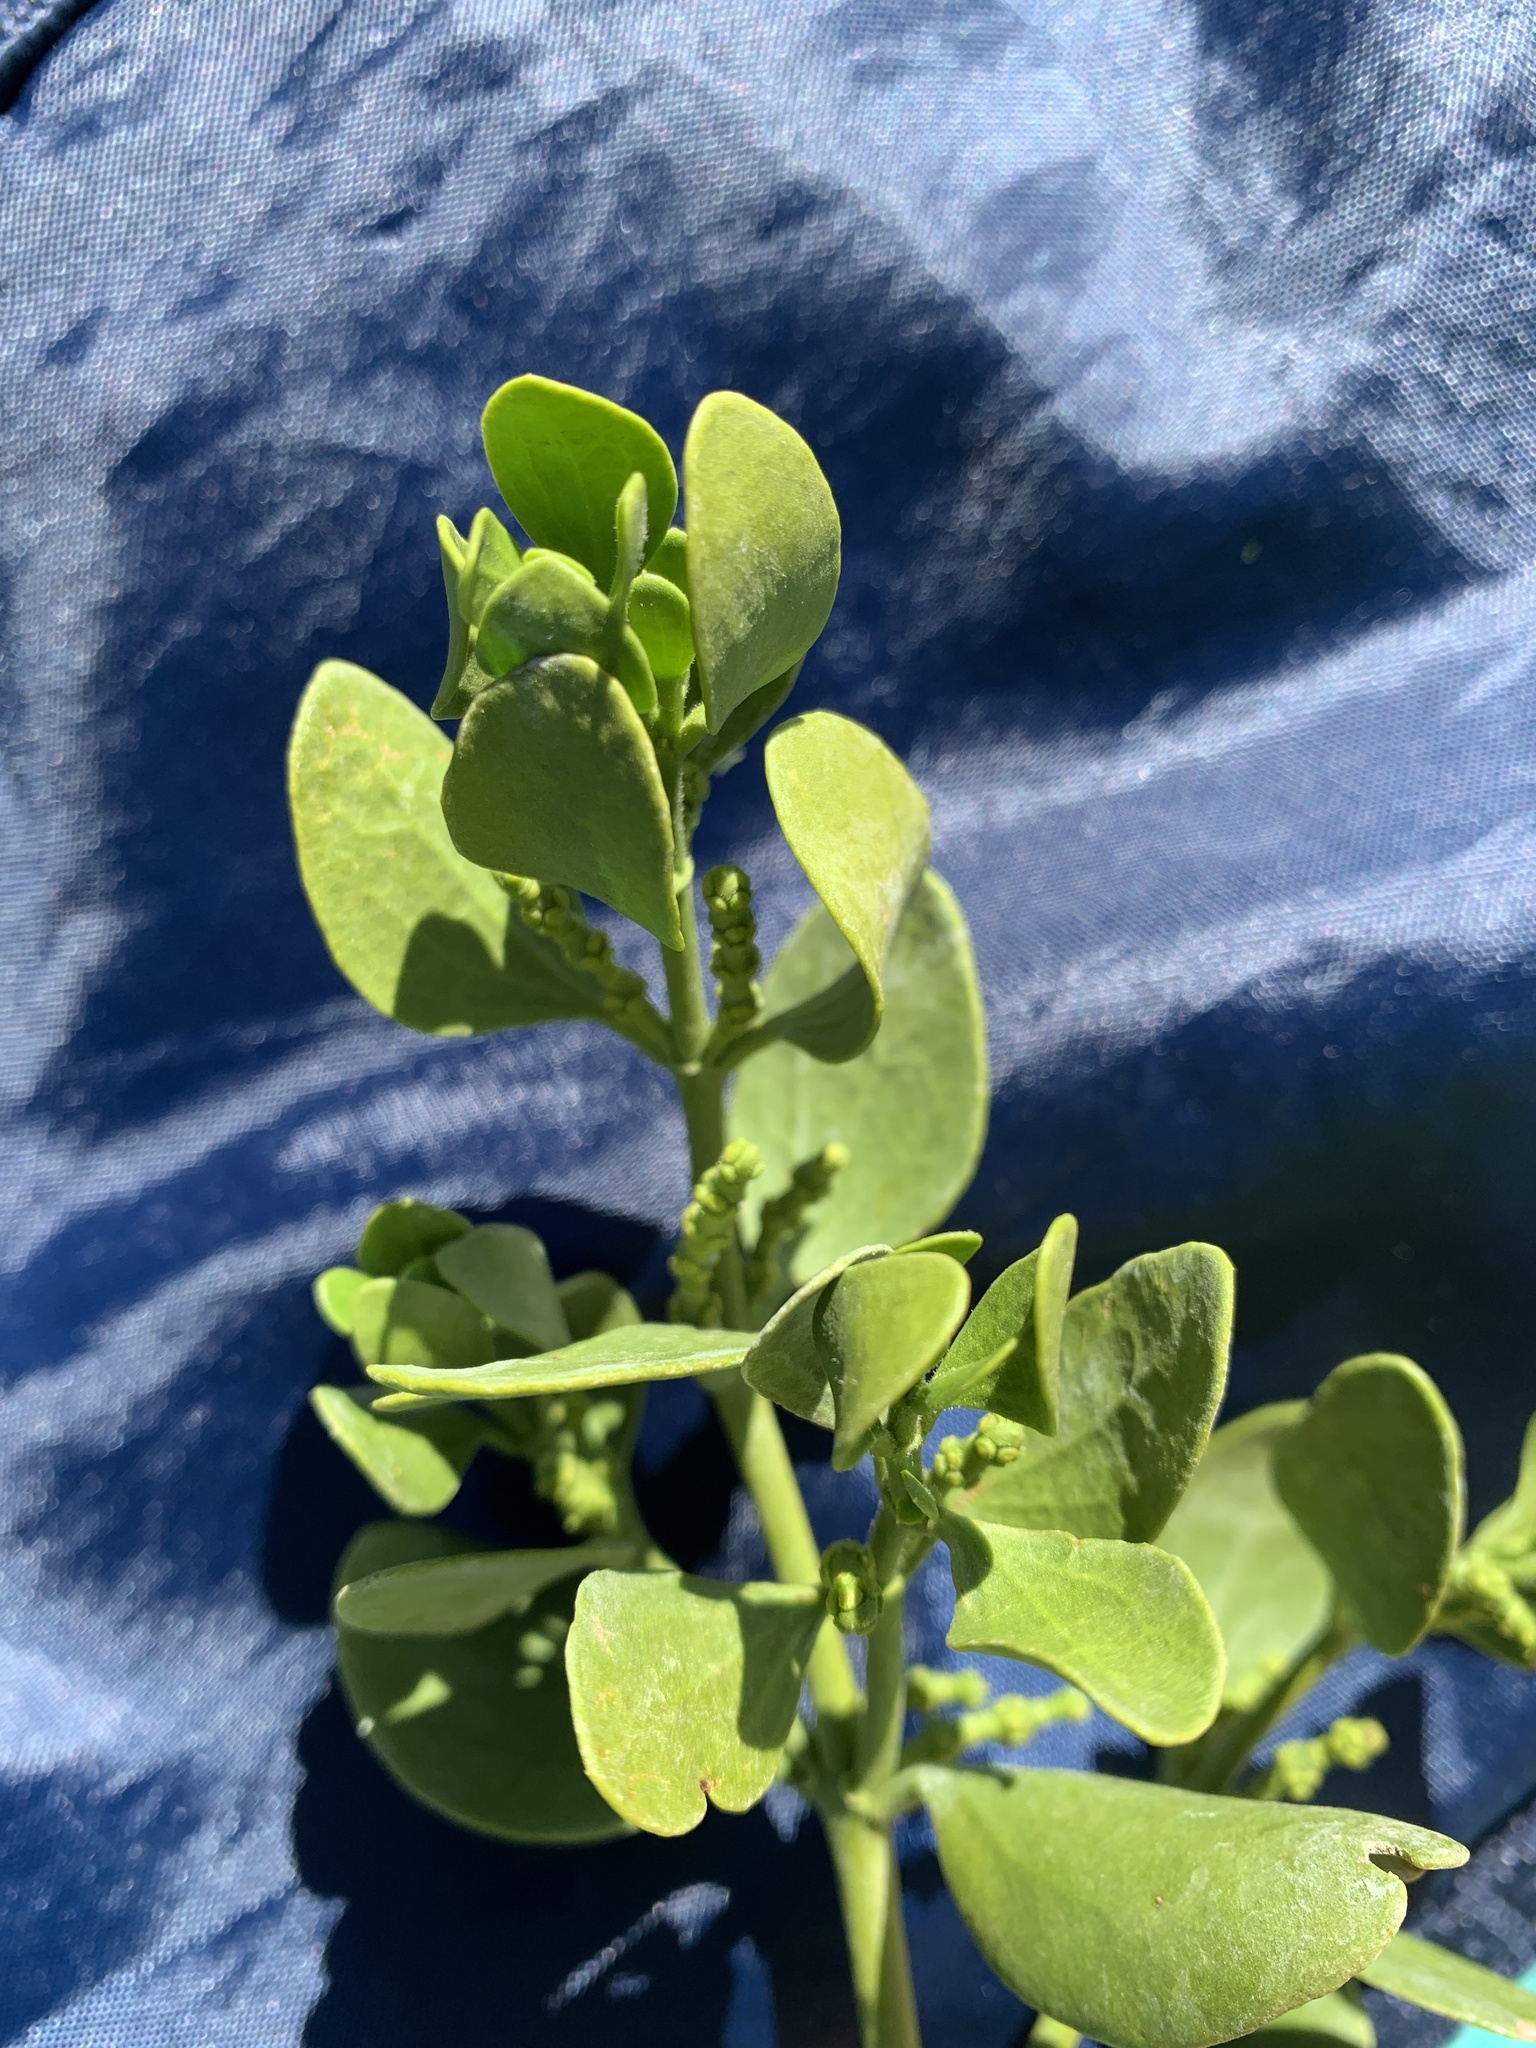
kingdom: Plantae
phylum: Tracheophyta
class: Magnoliopsida
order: Santalales
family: Viscaceae
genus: Phoradendron
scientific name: Phoradendron
